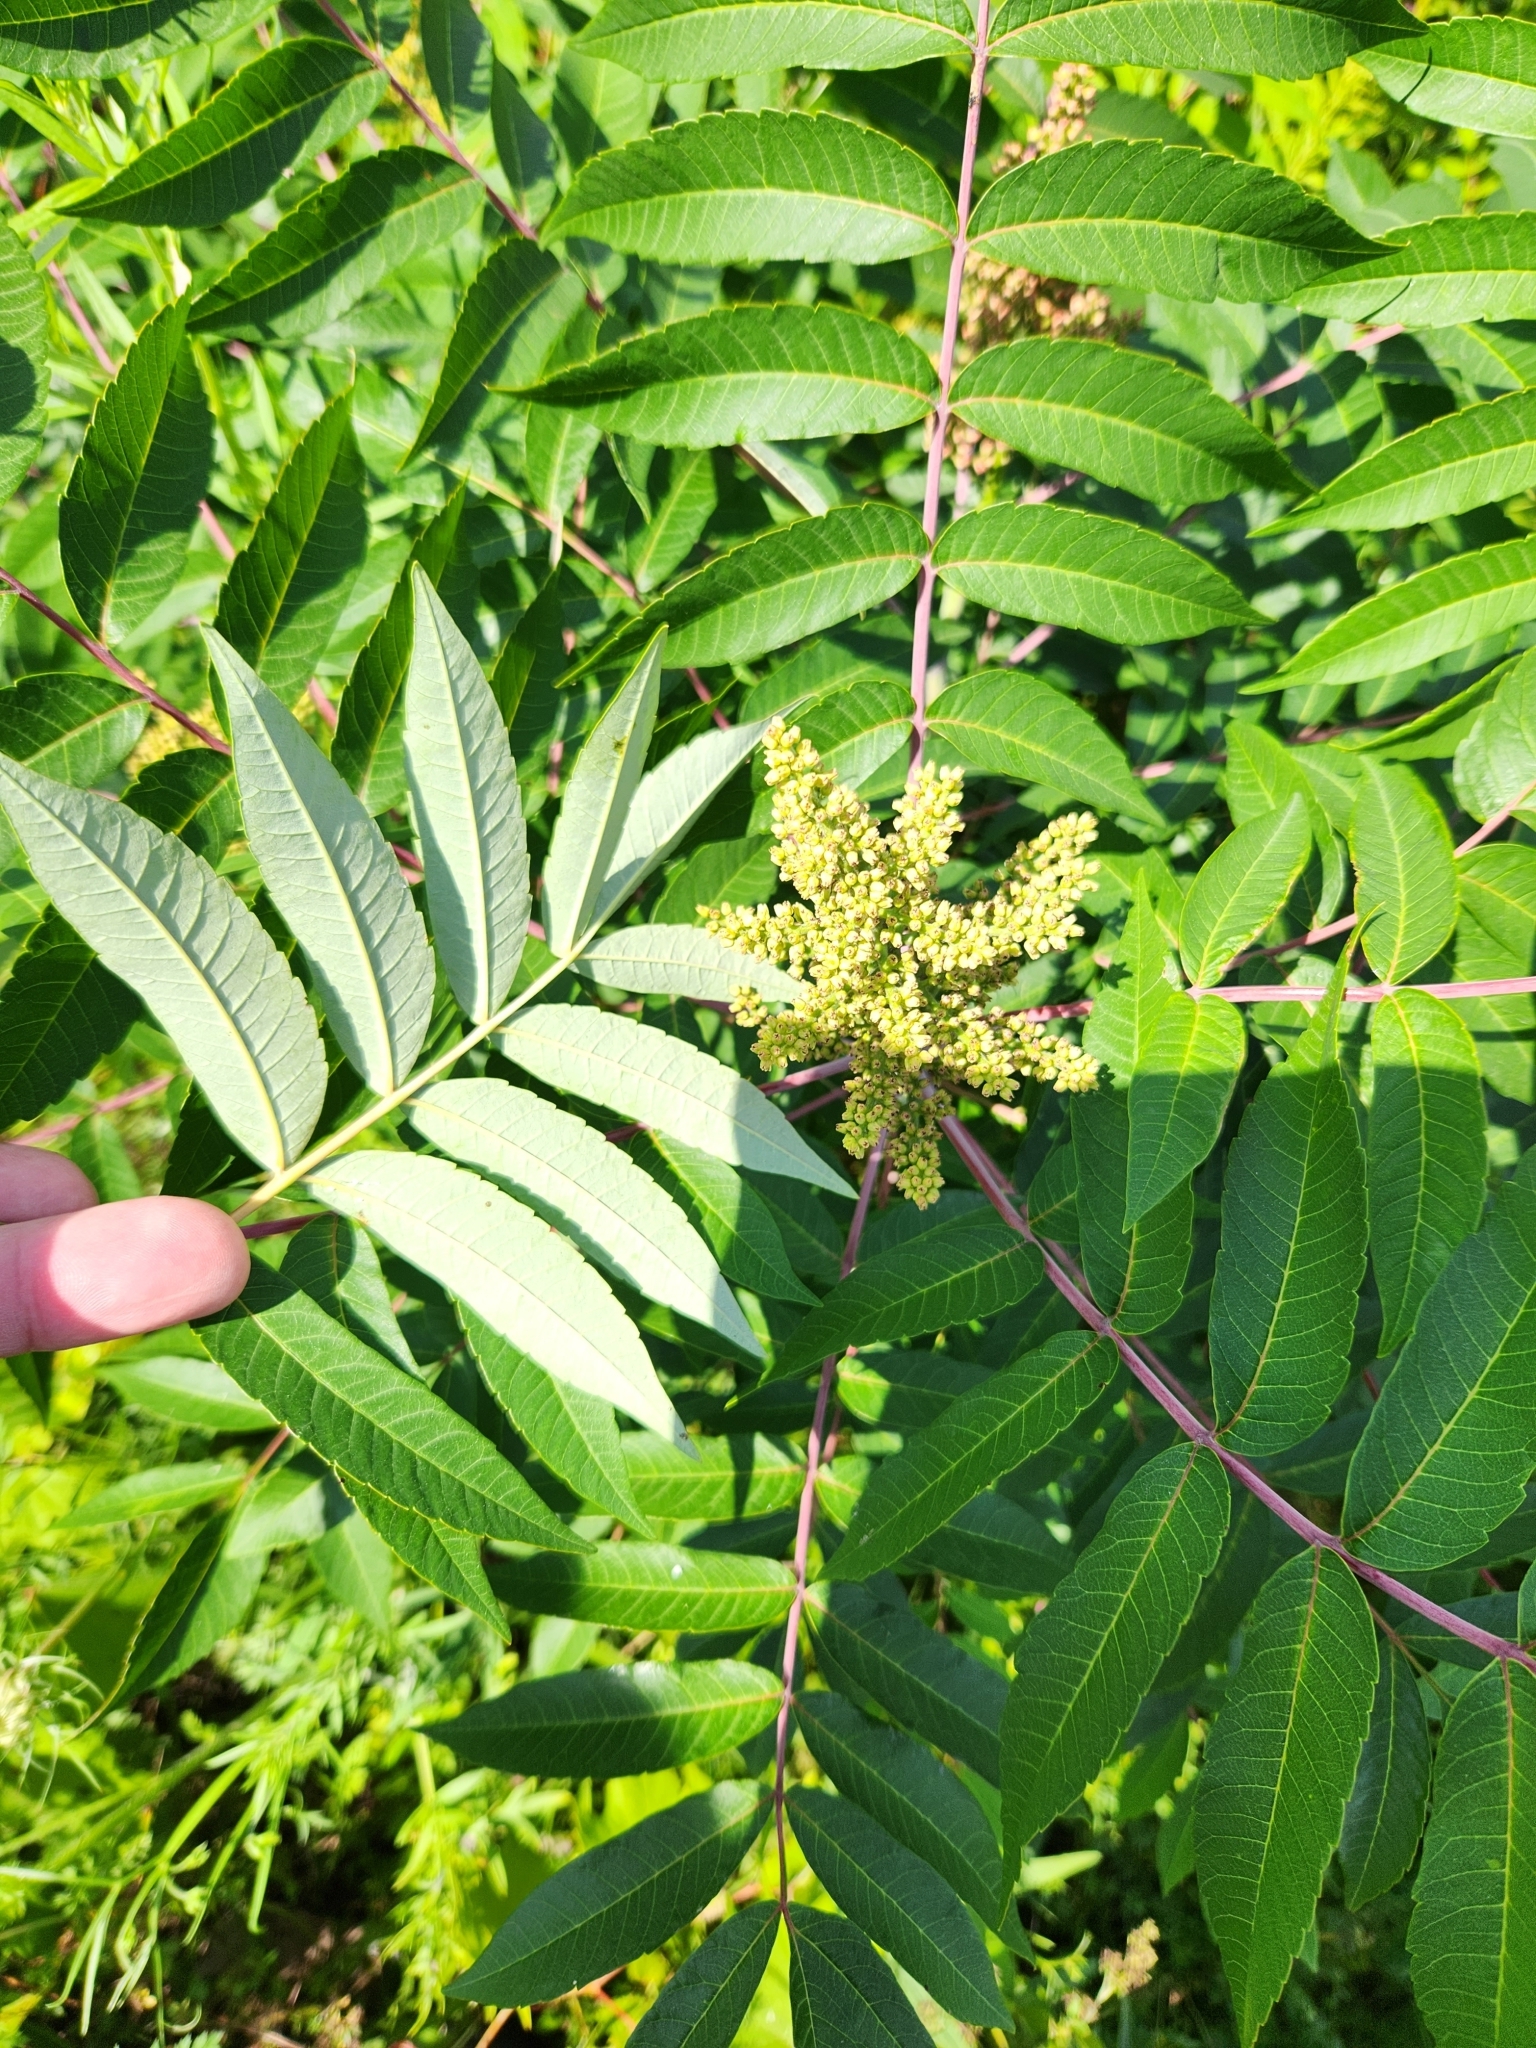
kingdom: Plantae
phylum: Tracheophyta
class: Magnoliopsida
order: Sapindales
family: Anacardiaceae
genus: Rhus
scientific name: Rhus glabra
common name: Scarlet sumac
